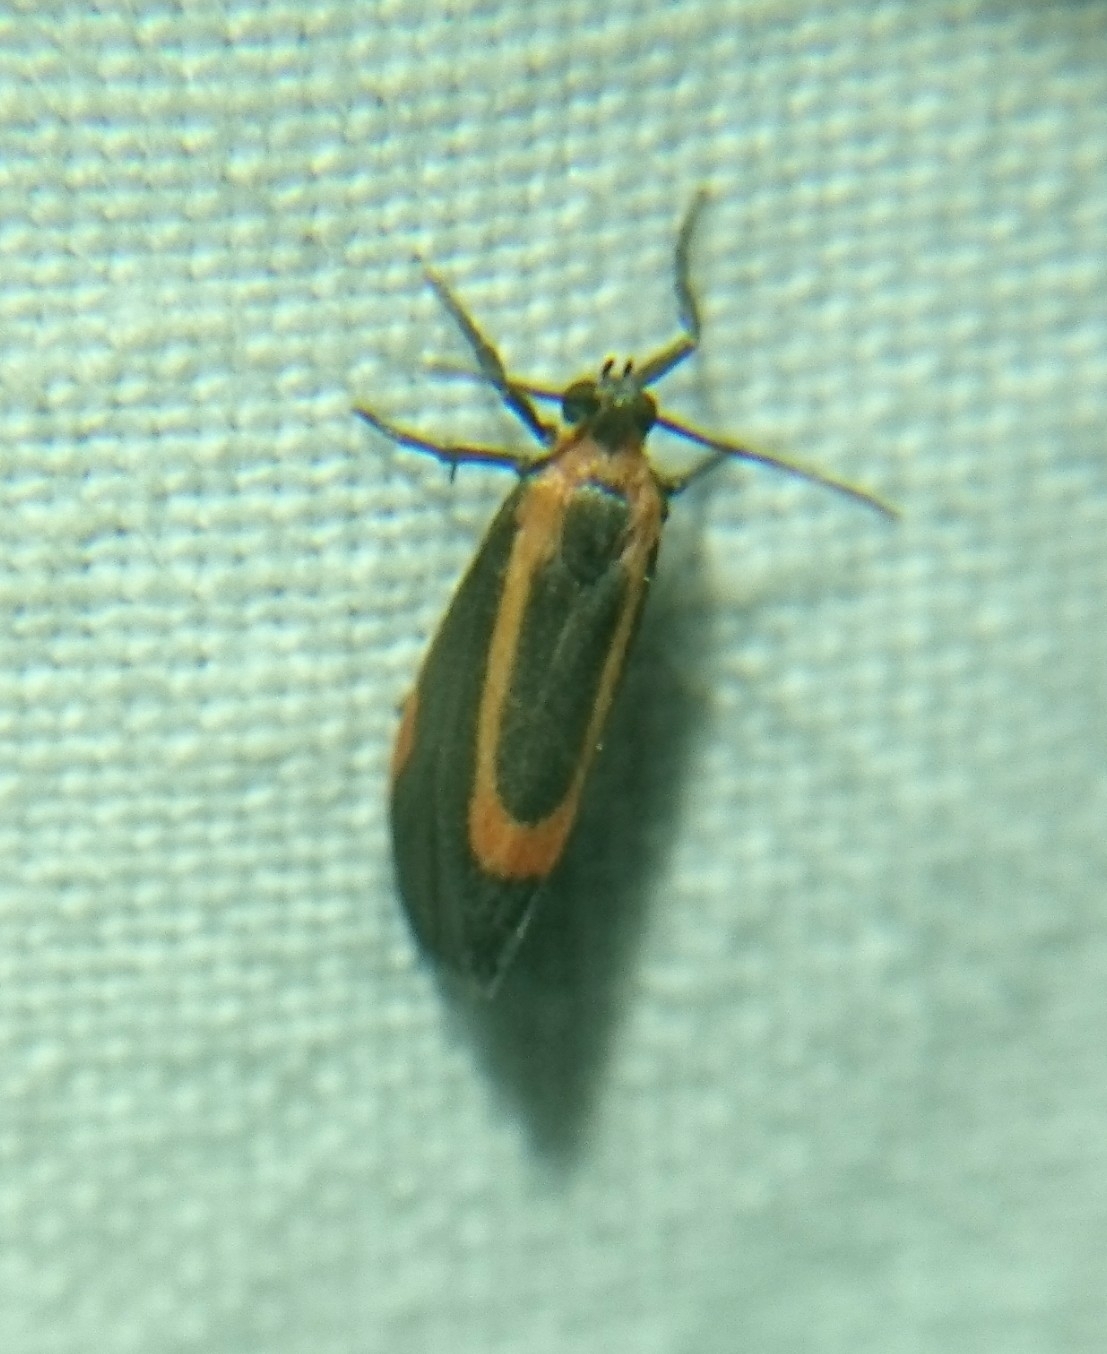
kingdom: Animalia
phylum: Arthropoda
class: Insecta
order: Lepidoptera
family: Erebidae
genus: Cisthene
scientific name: Cisthene subjecta
